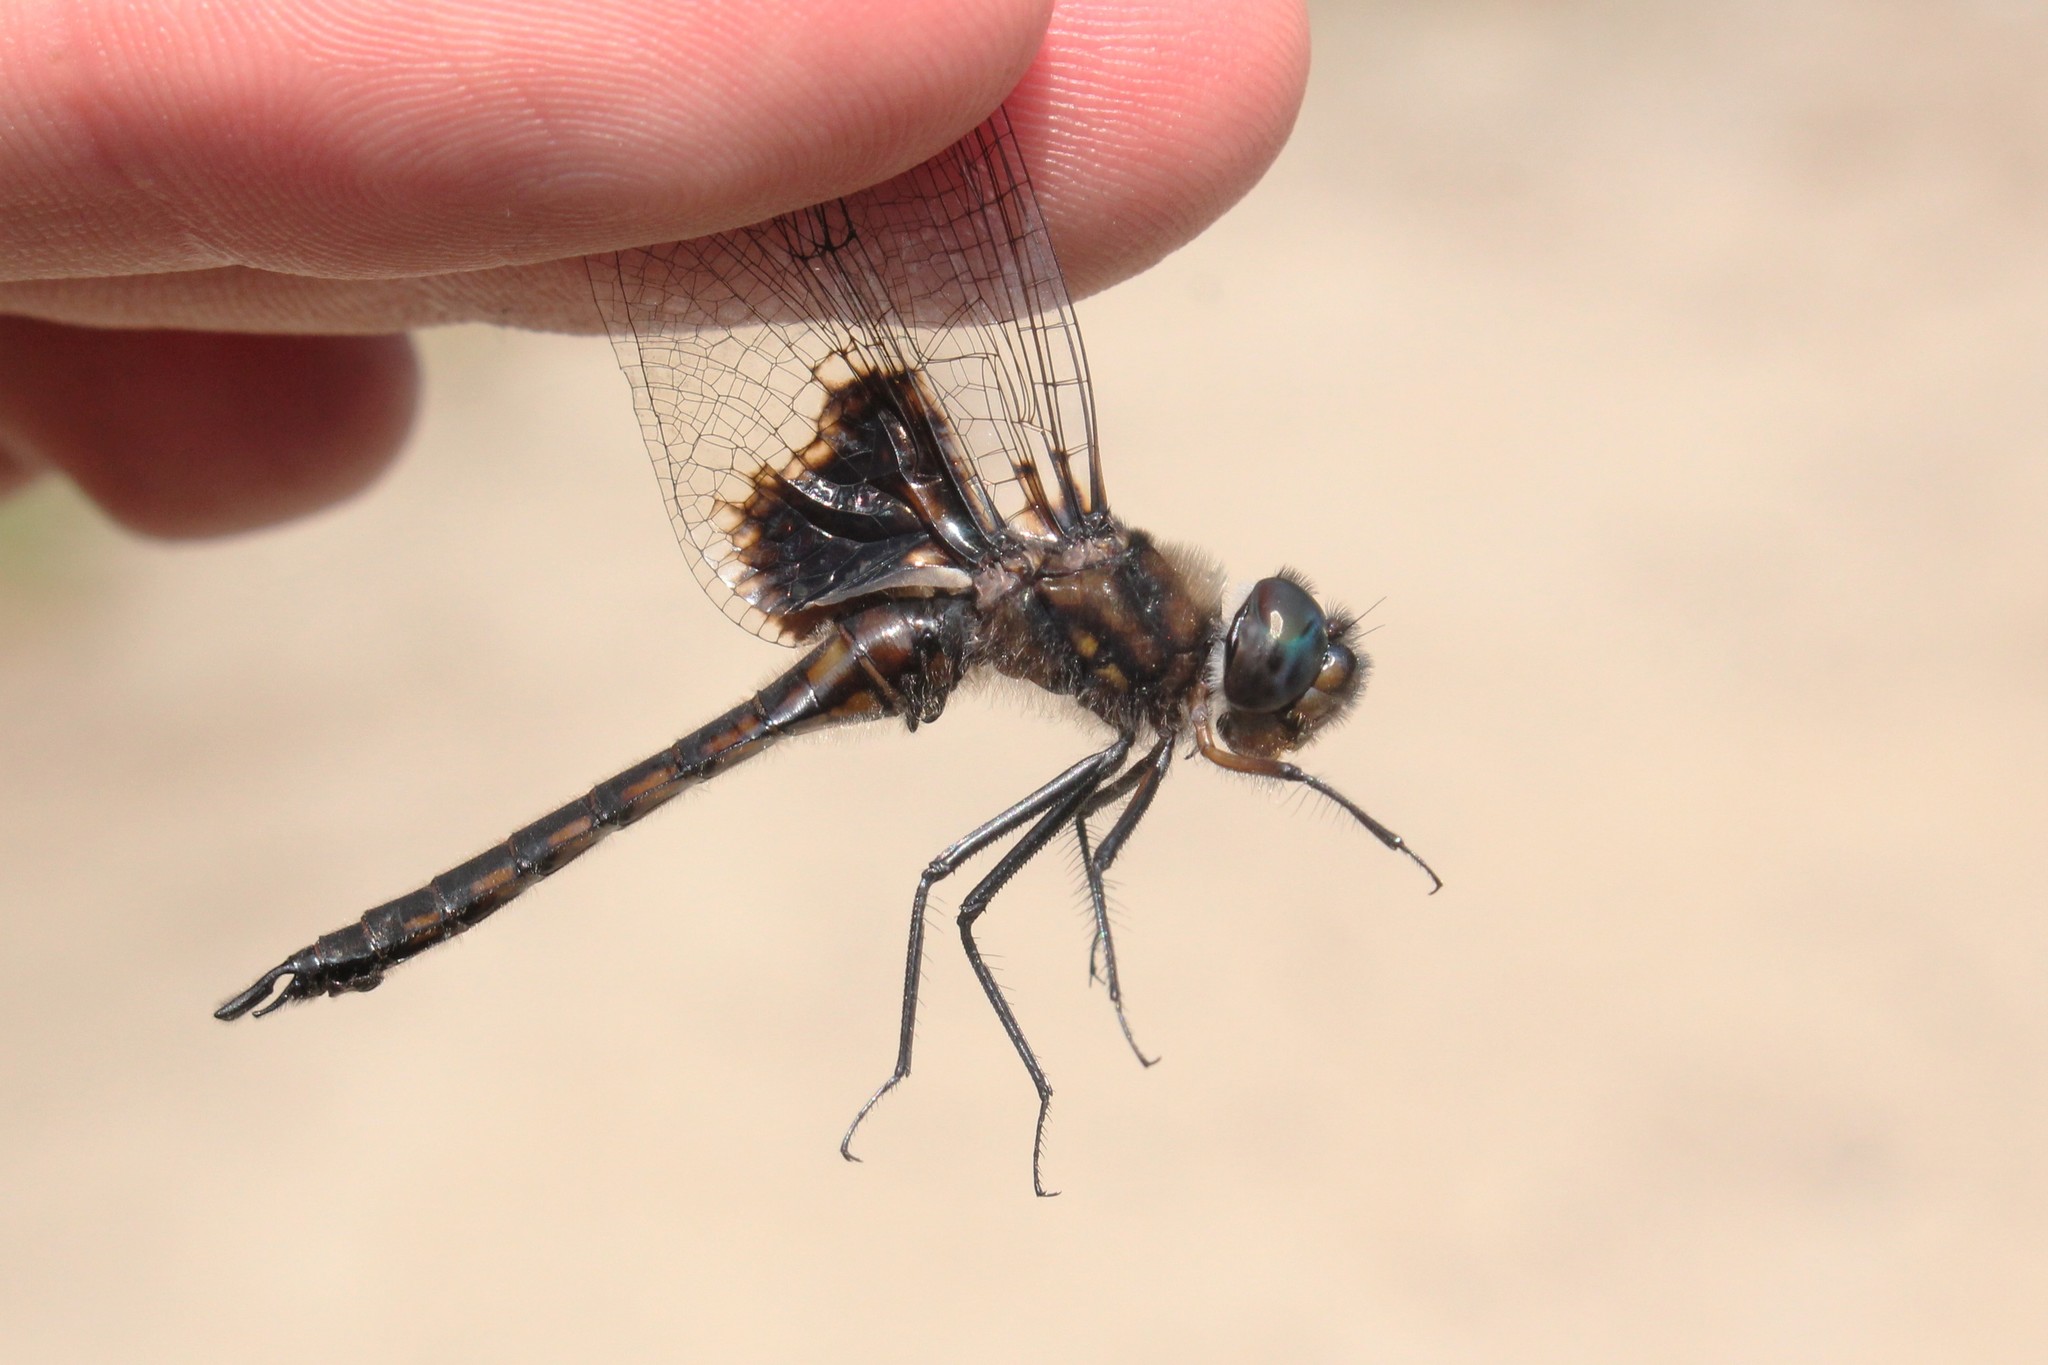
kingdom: Animalia
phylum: Arthropoda
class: Insecta
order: Odonata
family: Corduliidae
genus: Epitheca
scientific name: Epitheca cynosura
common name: Common baskettail
